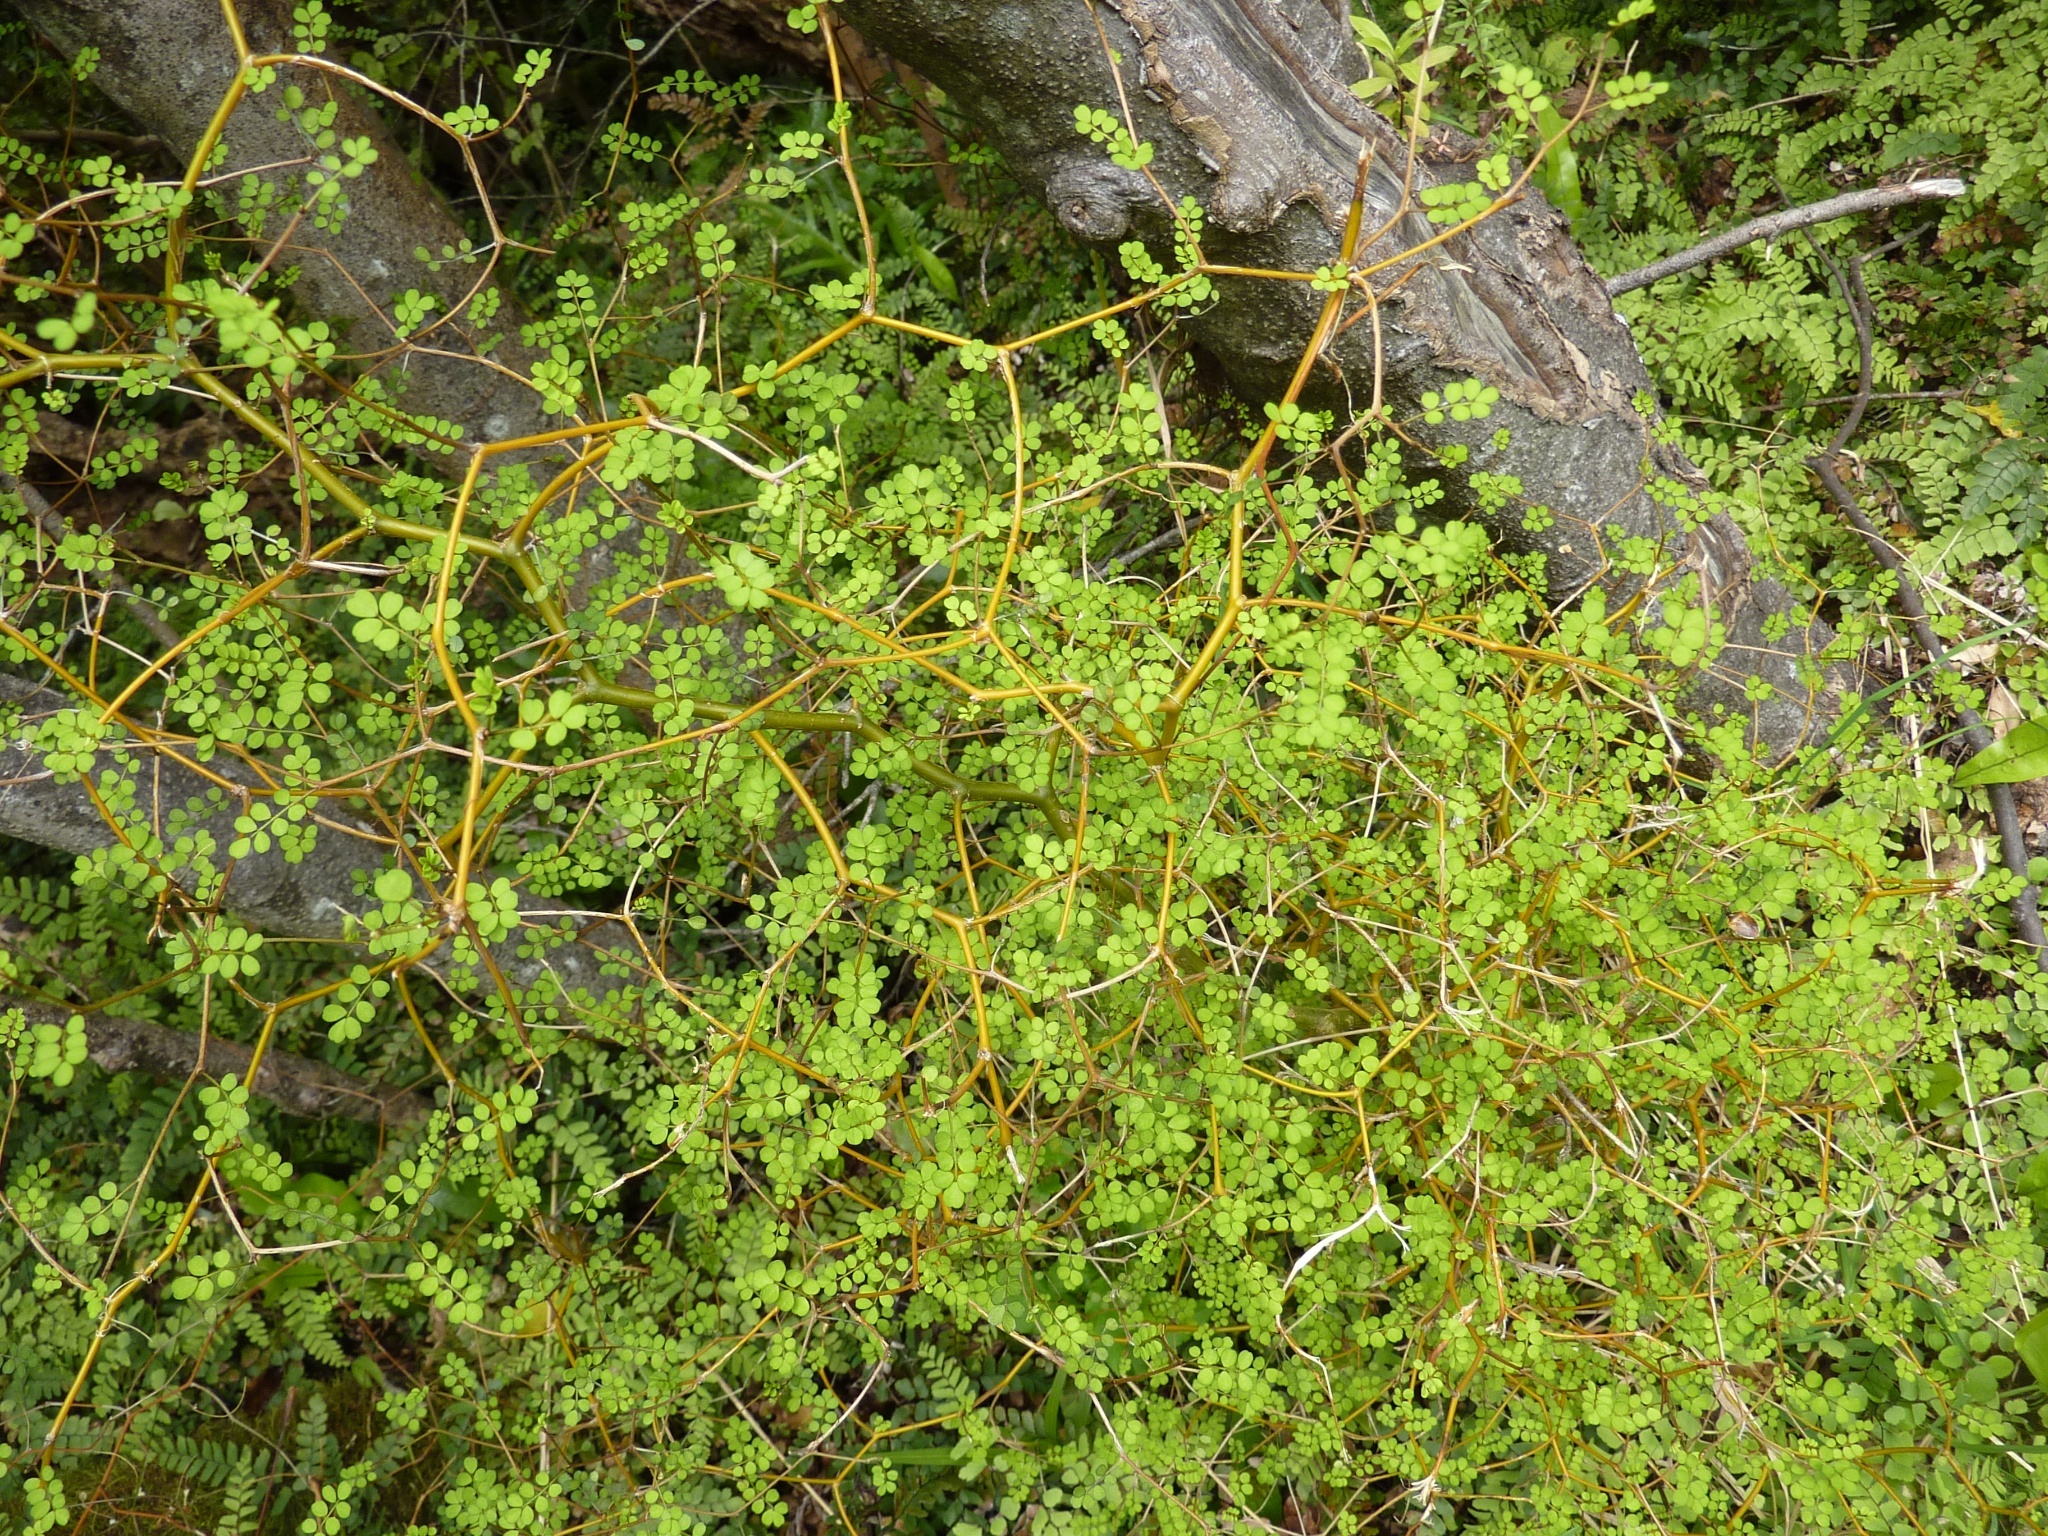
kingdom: Plantae
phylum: Tracheophyta
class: Magnoliopsida
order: Fabales
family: Fabaceae
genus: Sophora
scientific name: Sophora microphylla
